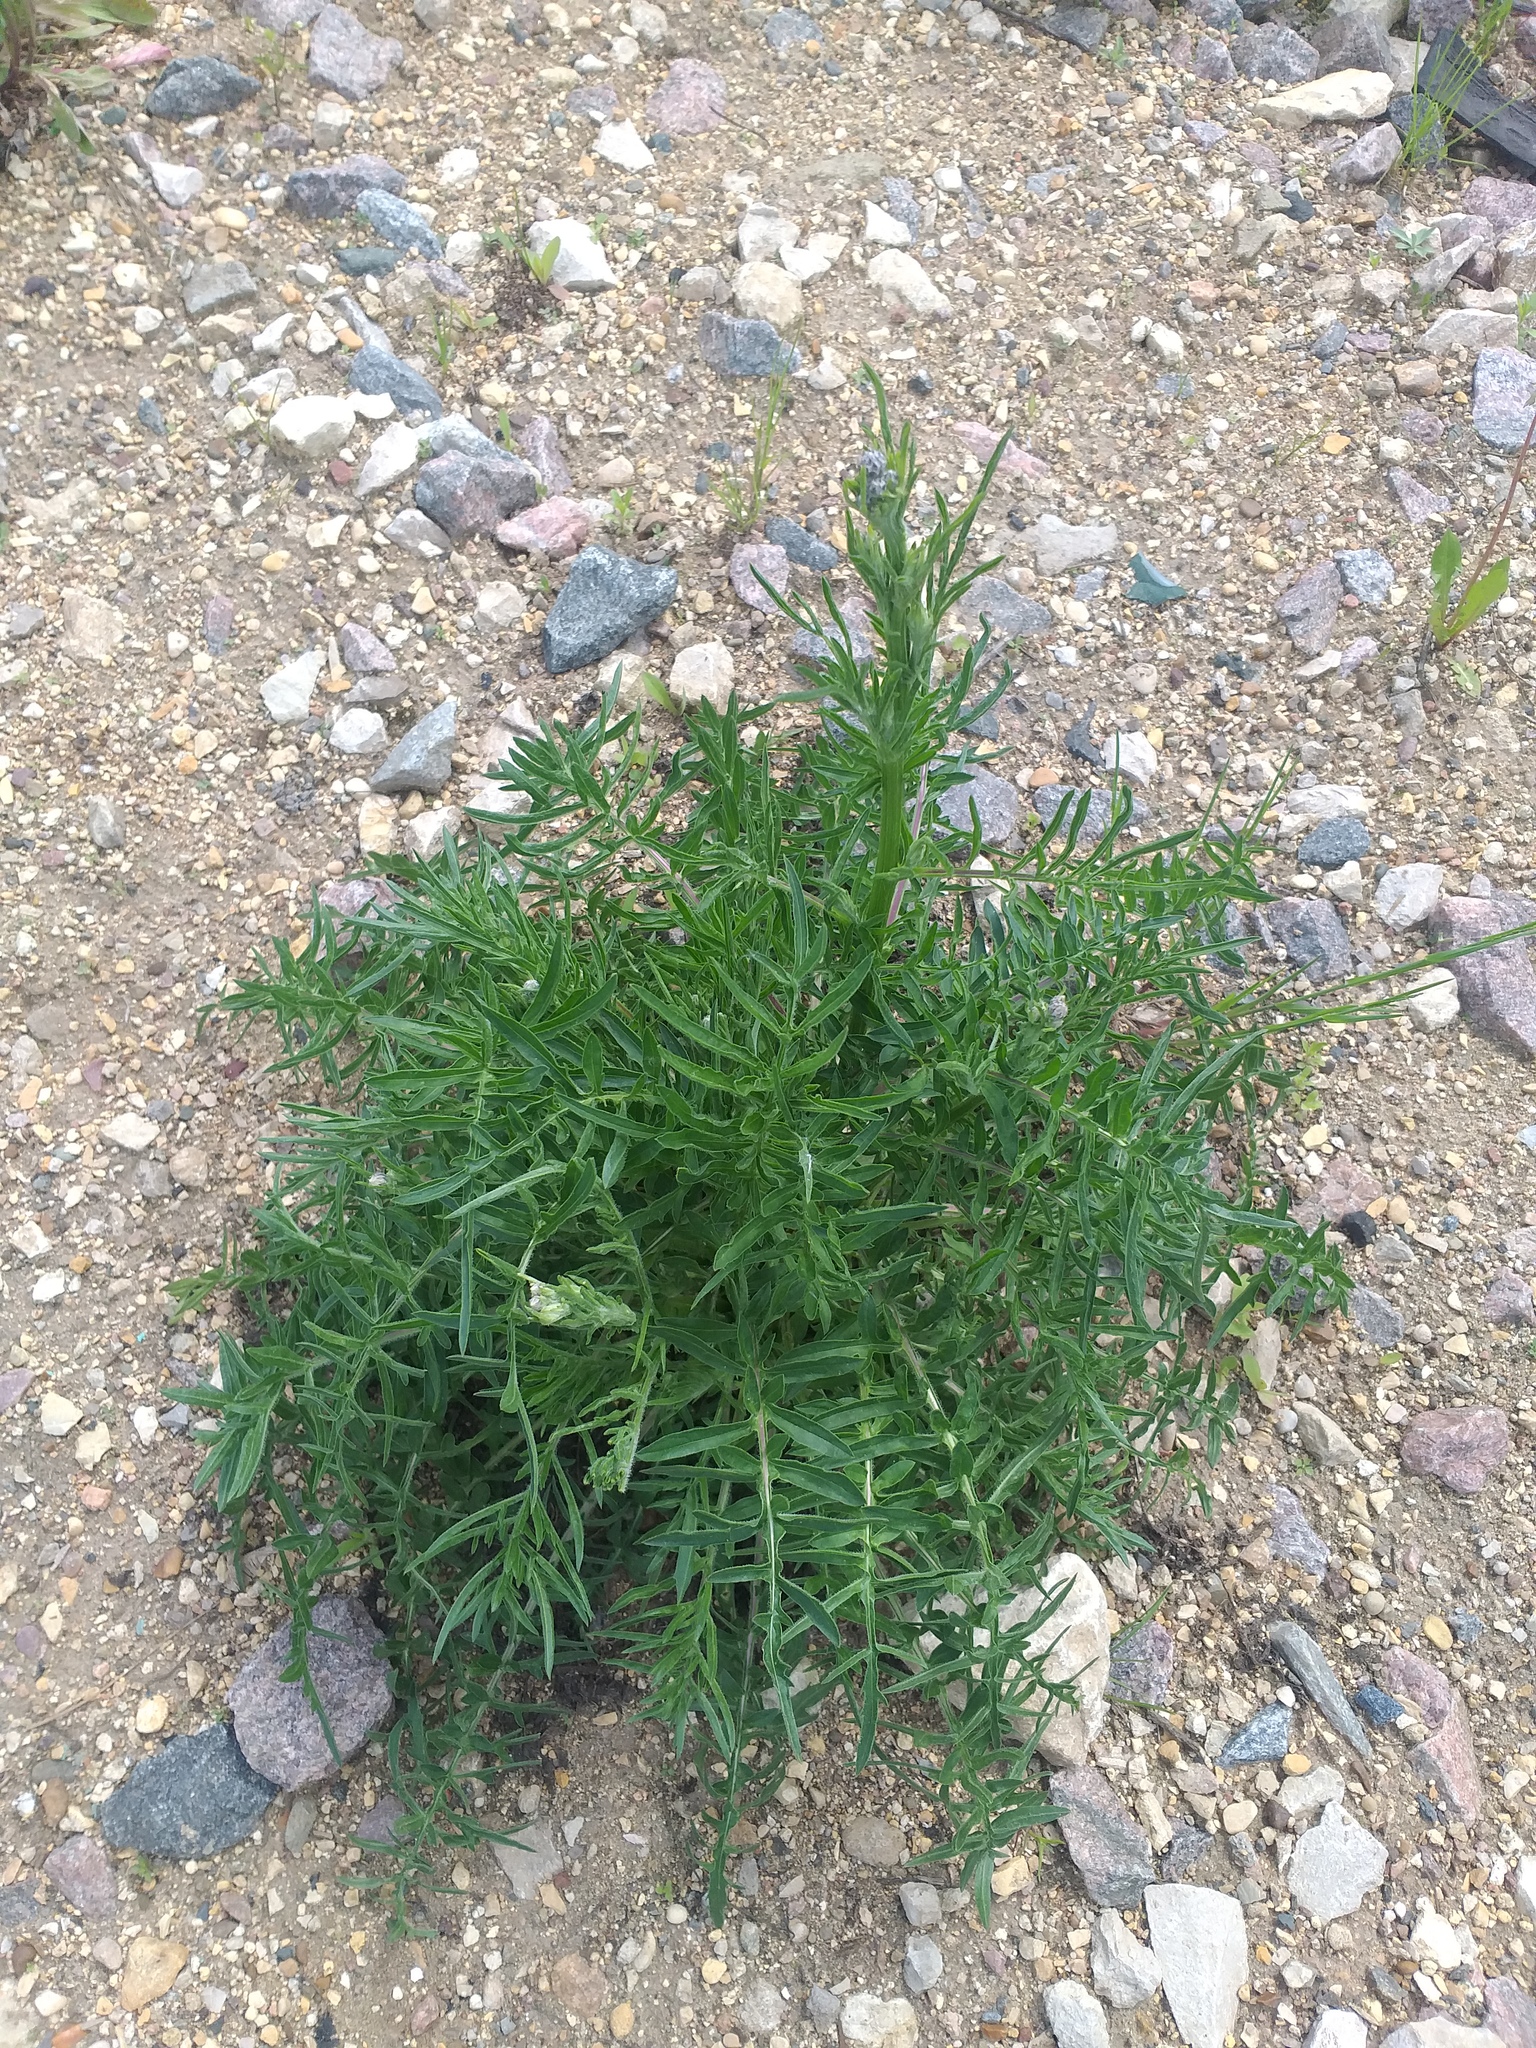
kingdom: Plantae
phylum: Tracheophyta
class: Magnoliopsida
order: Asterales
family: Asteraceae
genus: Centaurea
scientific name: Centaurea scabiosa
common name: Greater knapweed
